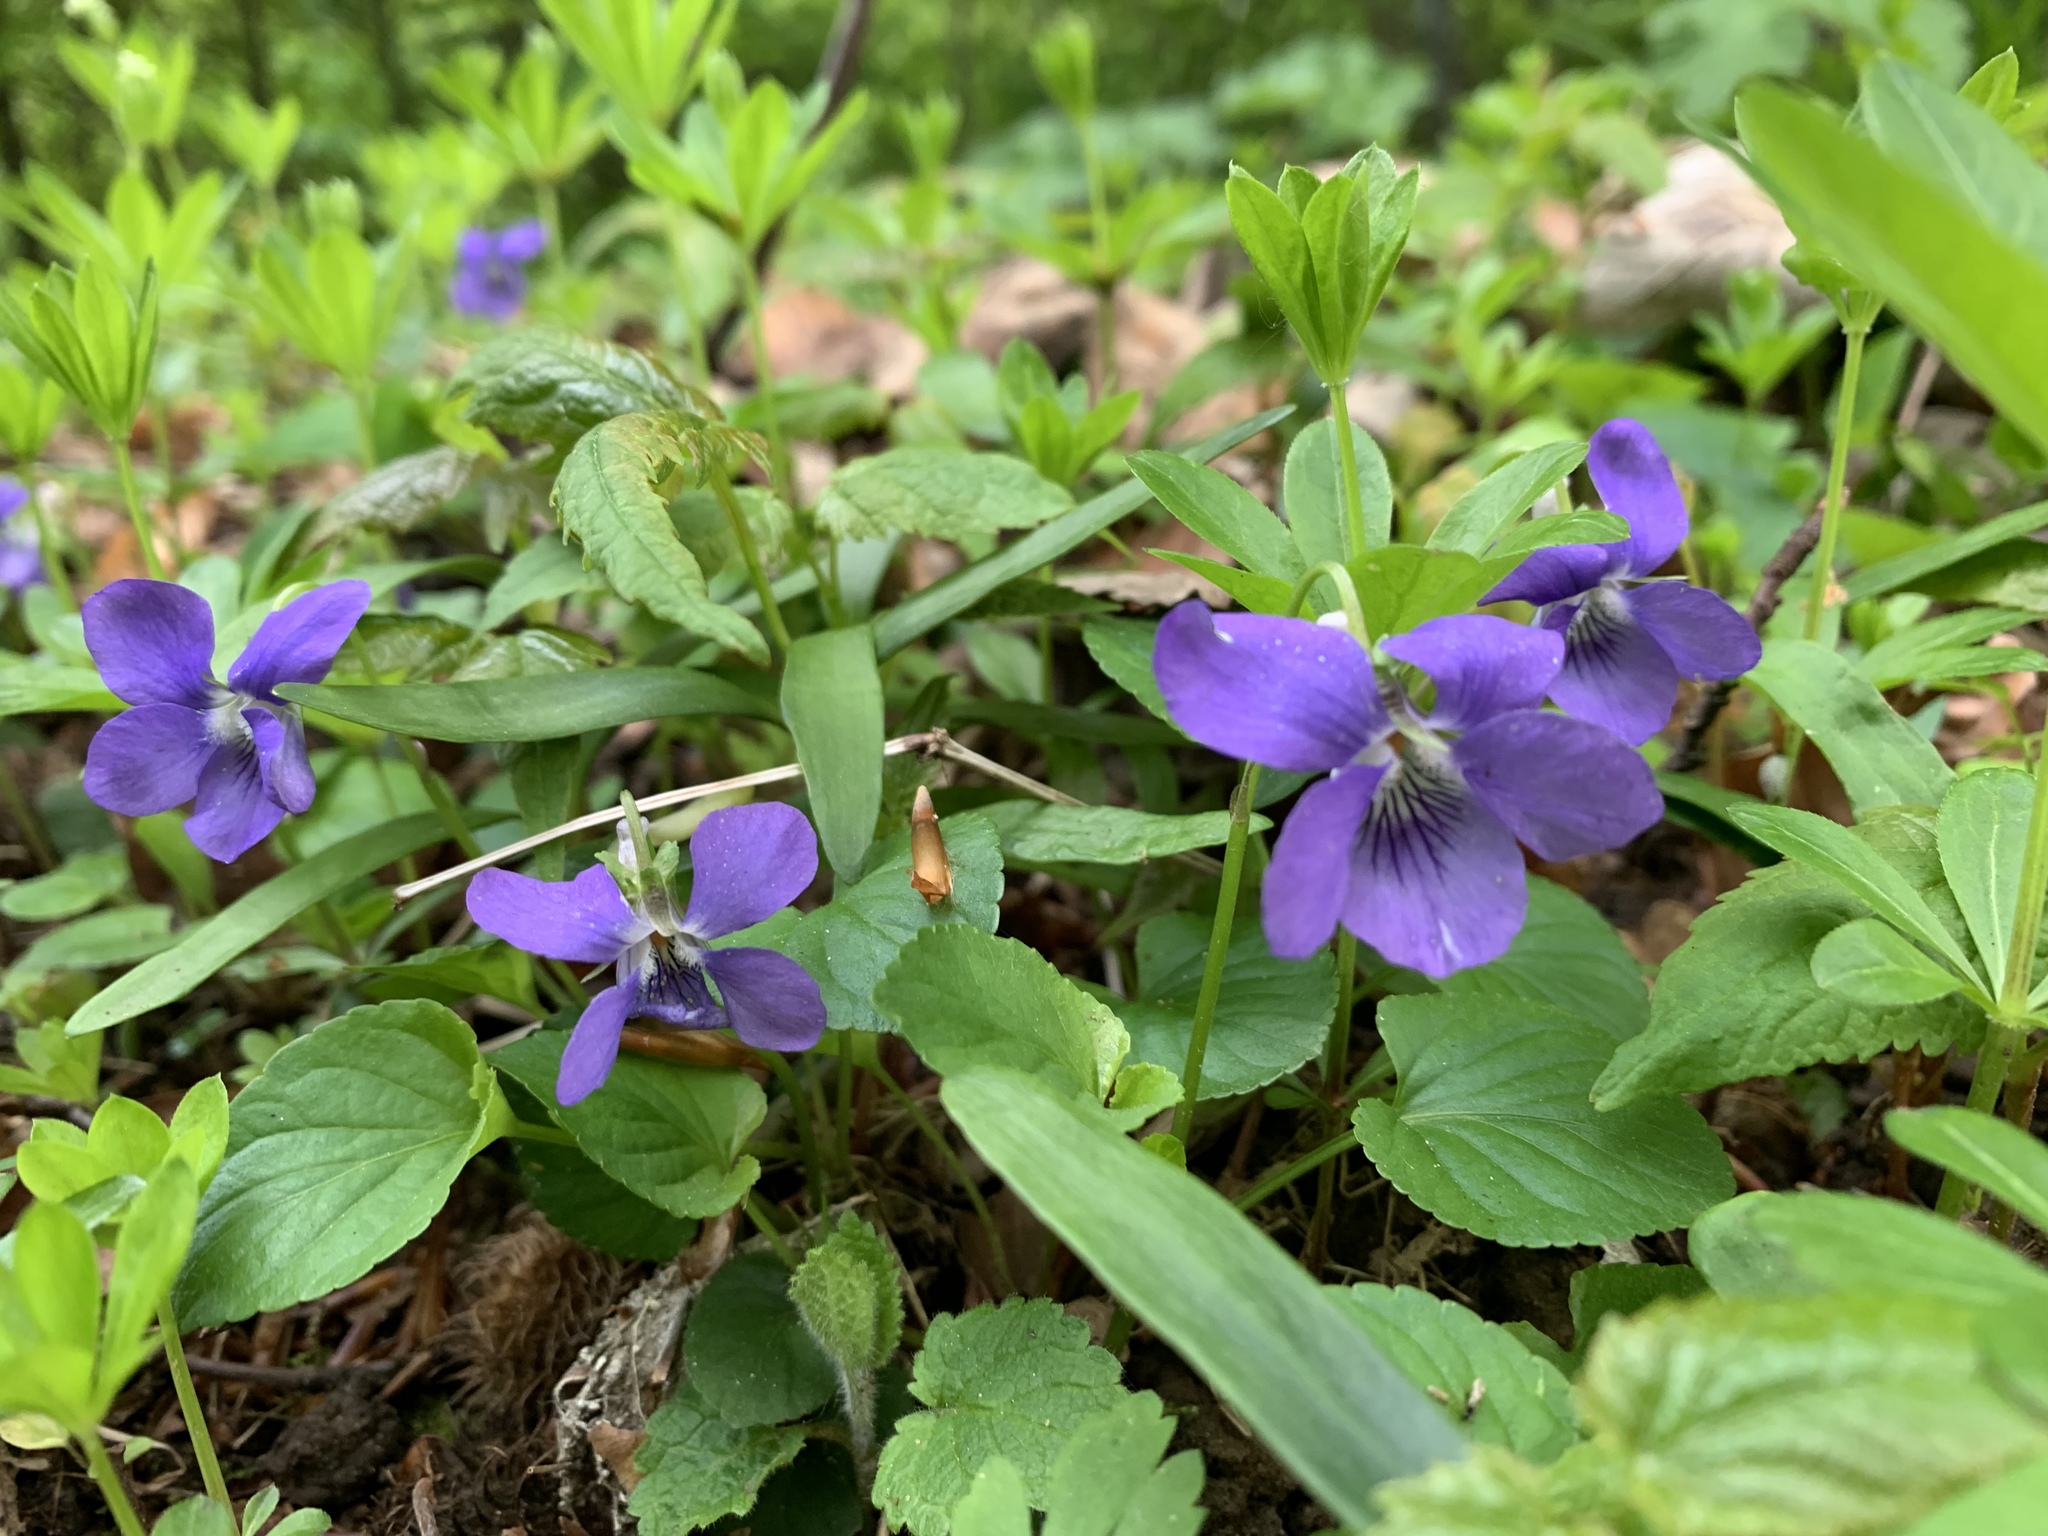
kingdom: Plantae
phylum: Tracheophyta
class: Magnoliopsida
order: Malpighiales
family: Violaceae
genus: Viola
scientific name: Viola riviniana
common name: Common dog-violet
